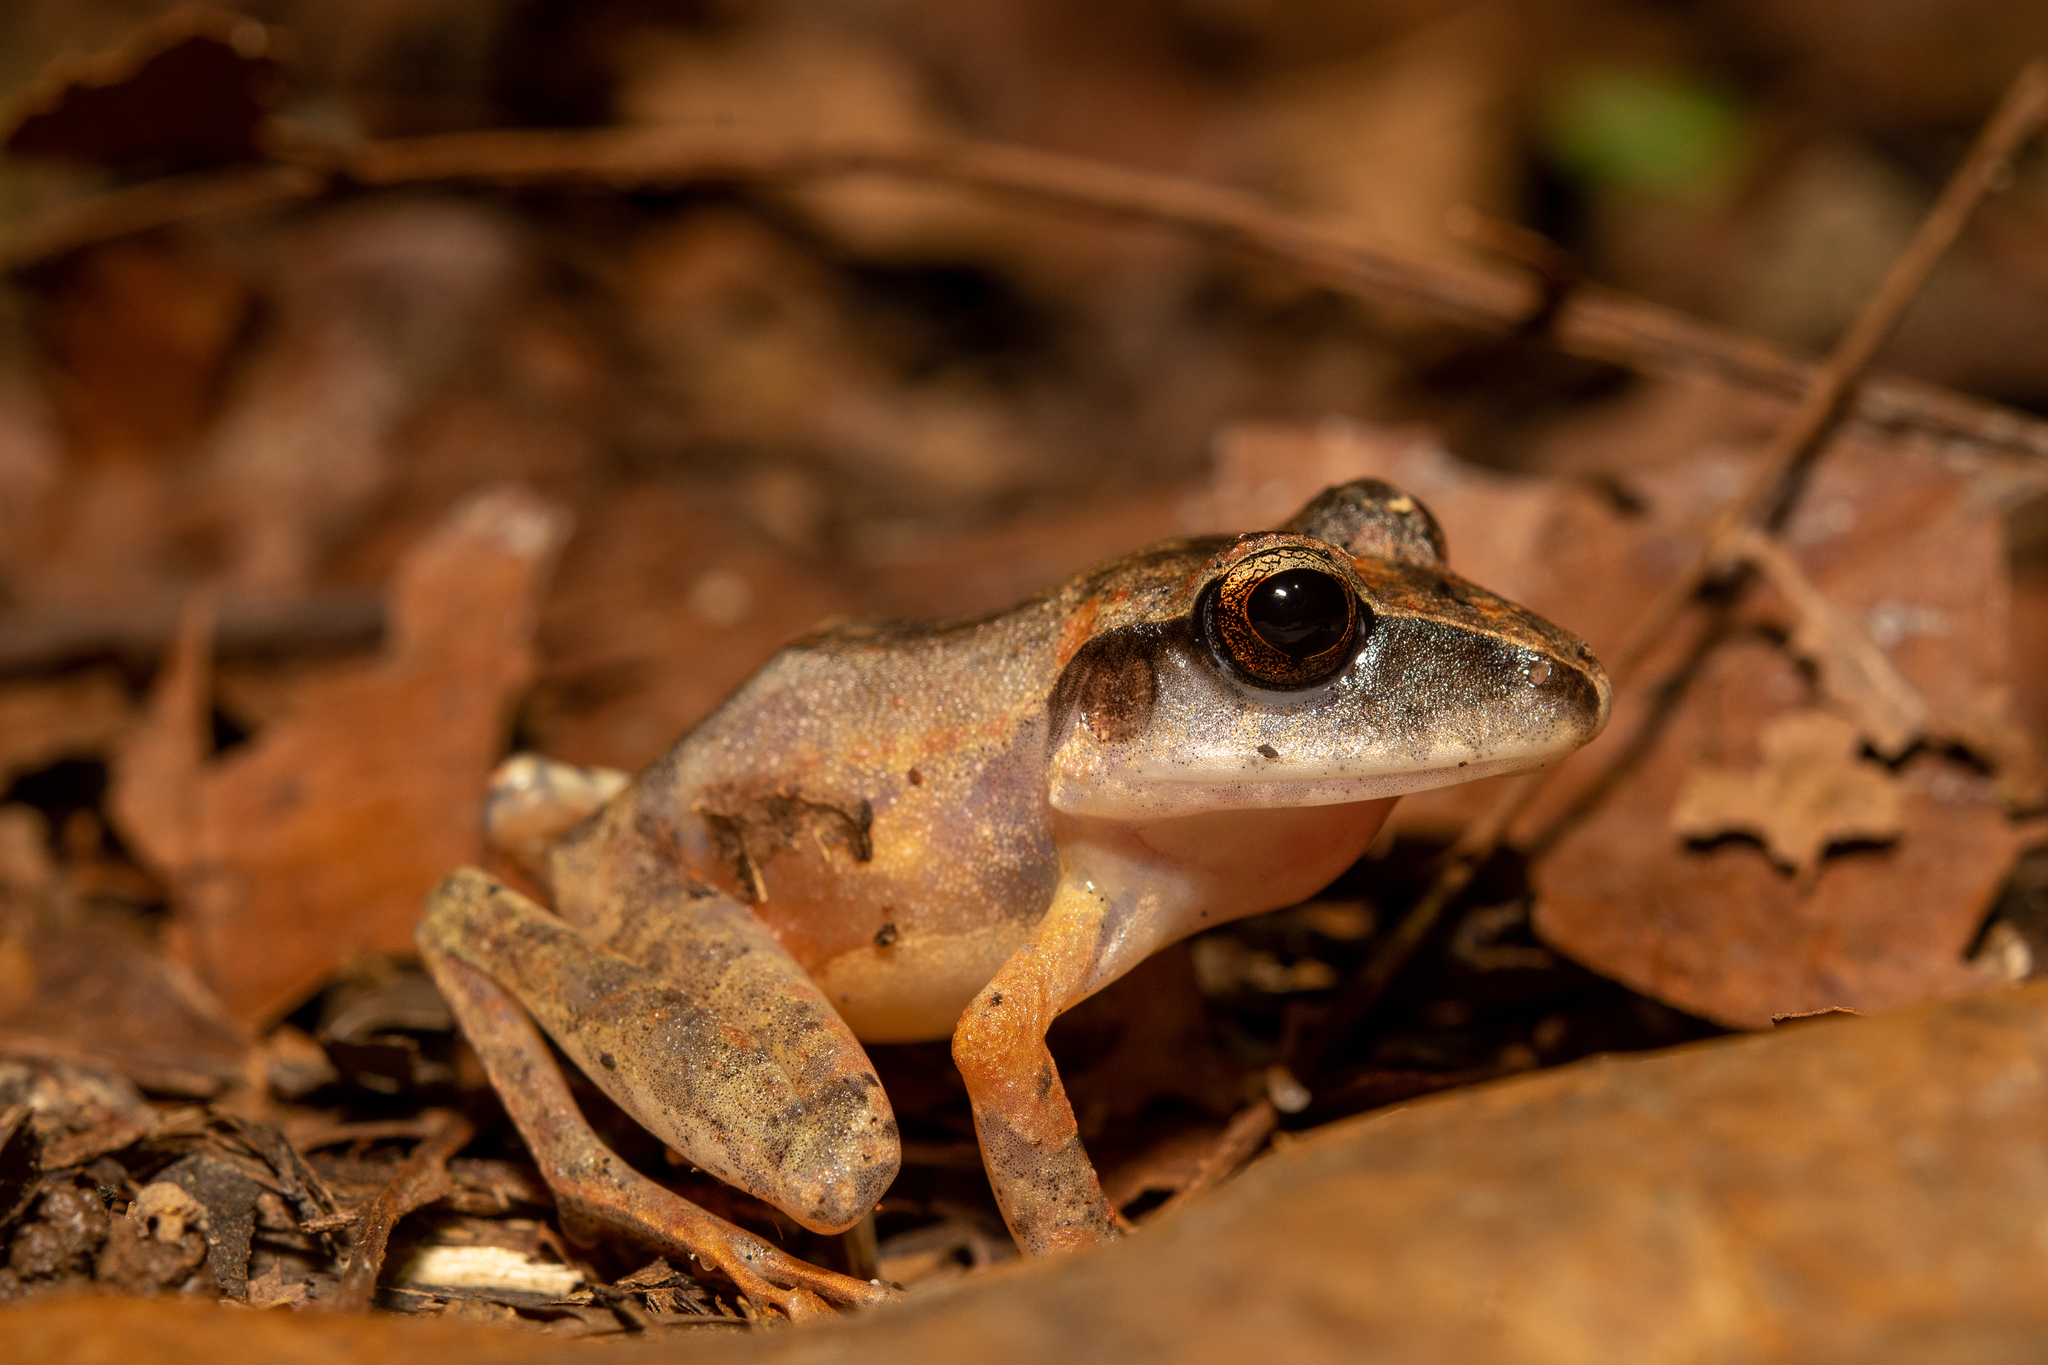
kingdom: Animalia
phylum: Chordata
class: Amphibia
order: Anura
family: Craugastoridae
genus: Craugastor
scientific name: Craugastor laticeps
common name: Broad-headed cave frog
